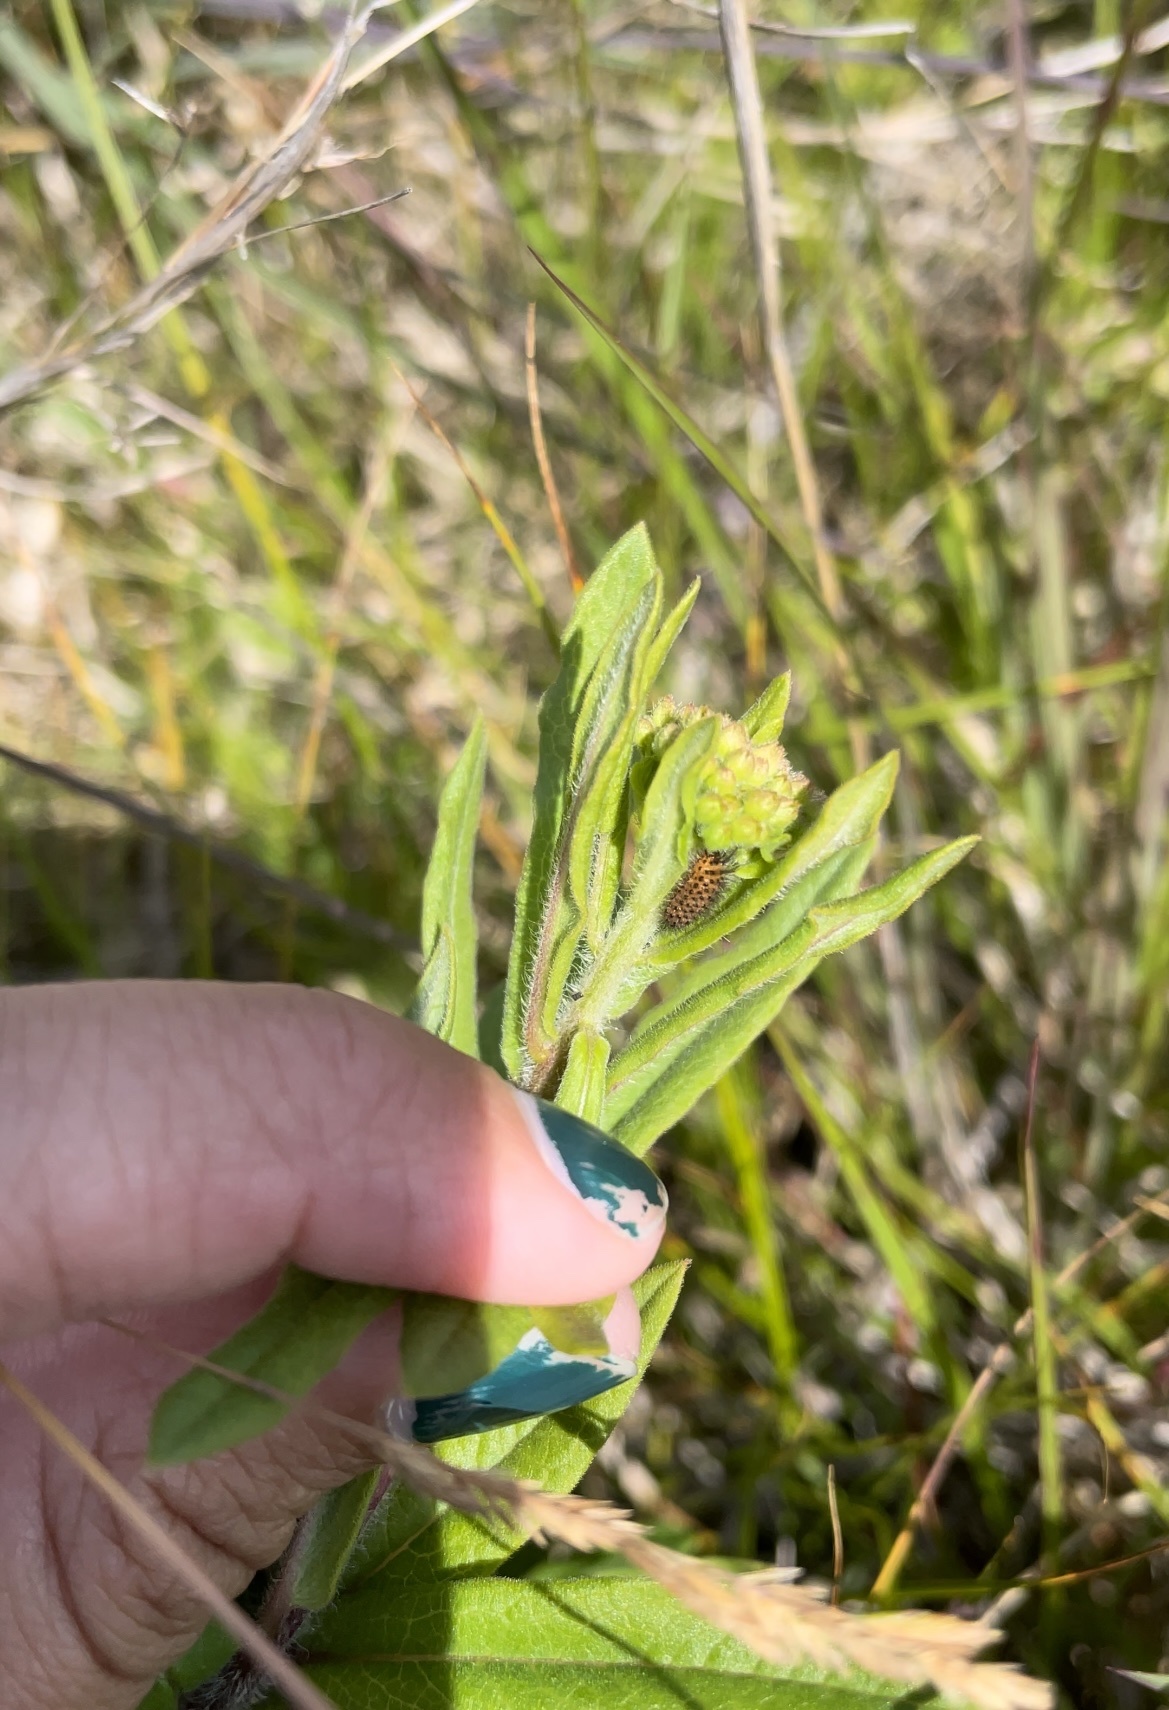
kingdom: Animalia
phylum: Arthropoda
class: Insecta
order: Lepidoptera
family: Erebidae
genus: Cycnia
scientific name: Cycnia collaris
